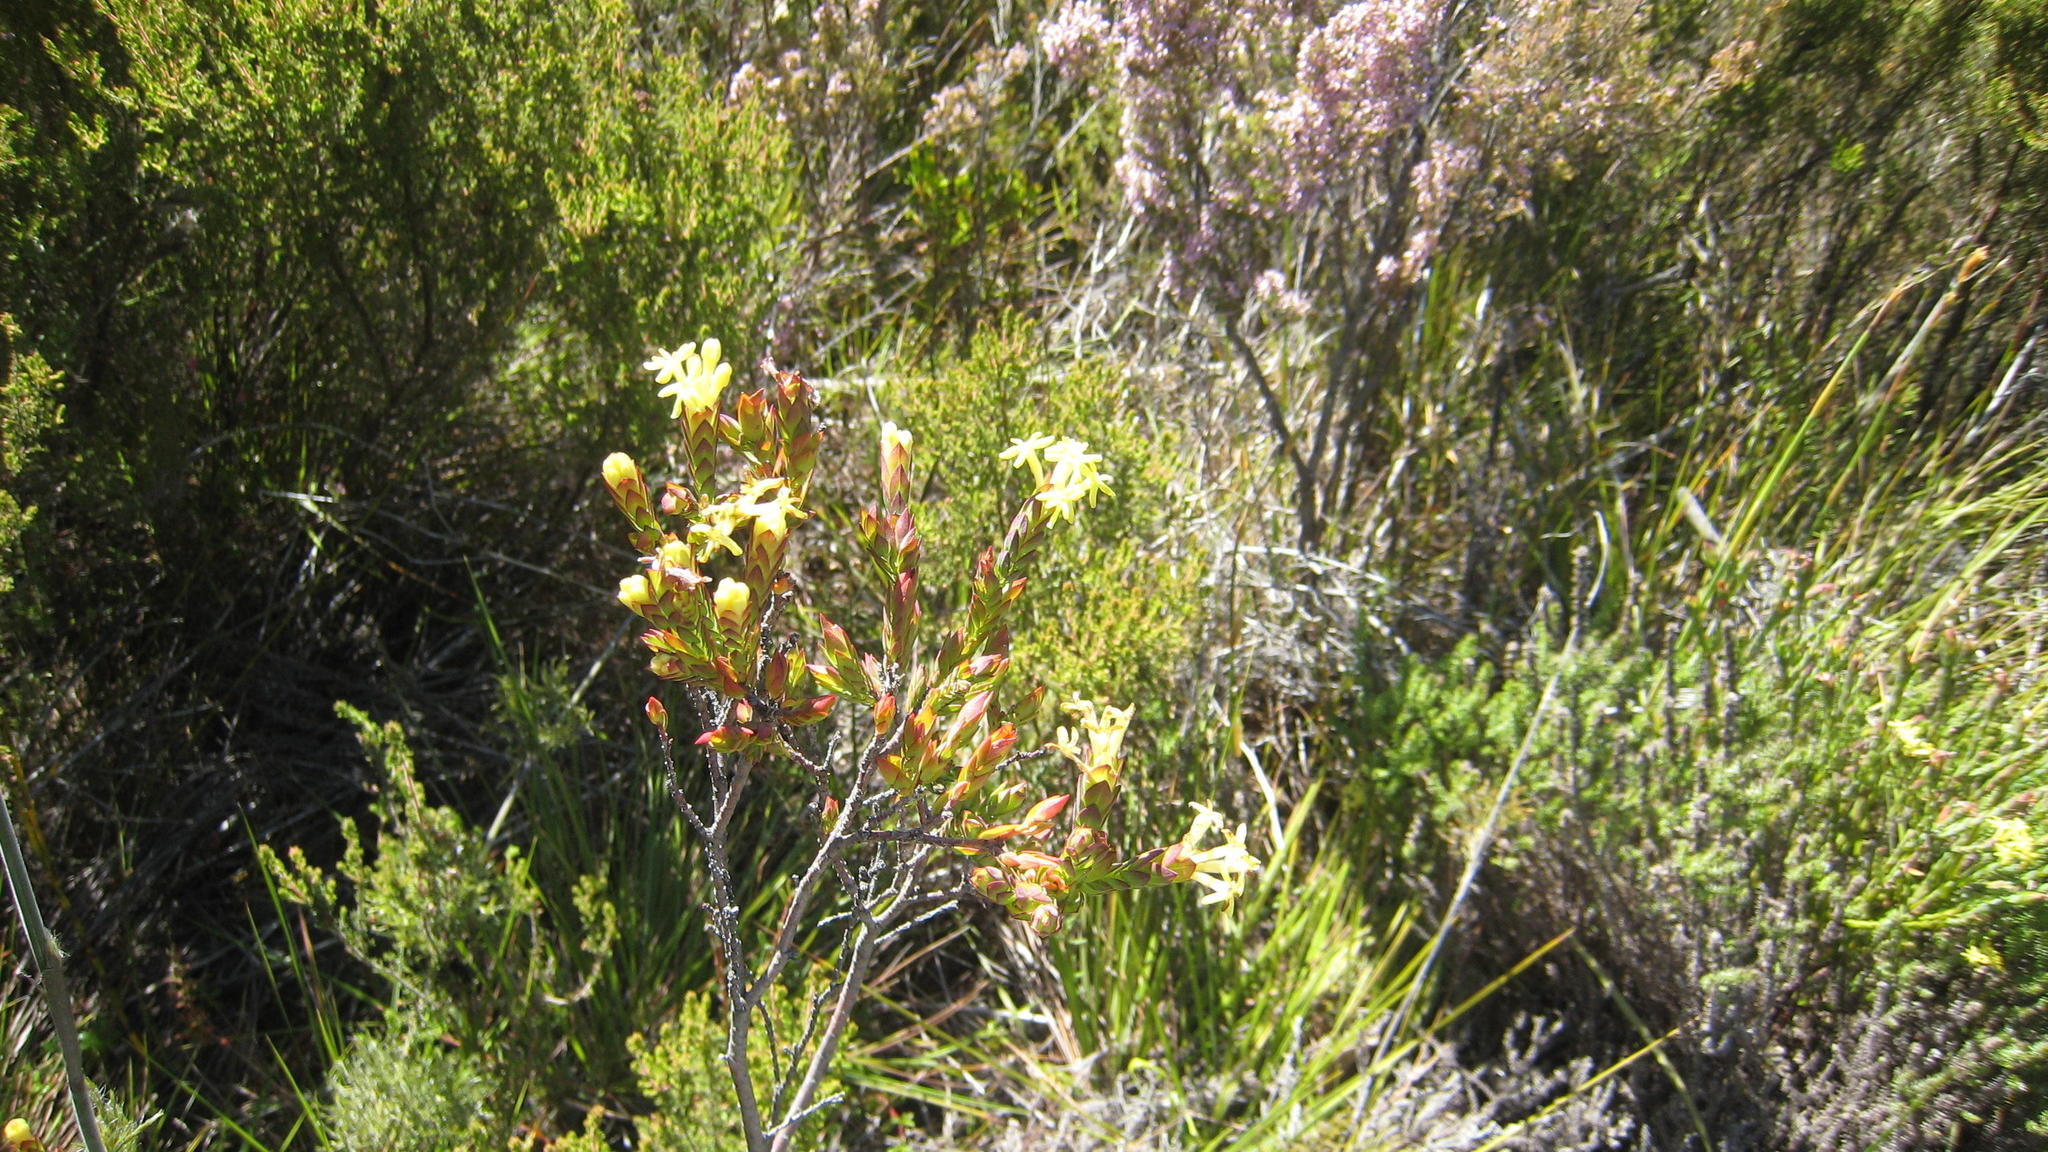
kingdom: Plantae
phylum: Tracheophyta
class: Magnoliopsida
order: Malvales
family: Thymelaeaceae
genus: Gnidia
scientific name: Gnidia oppositifolia
